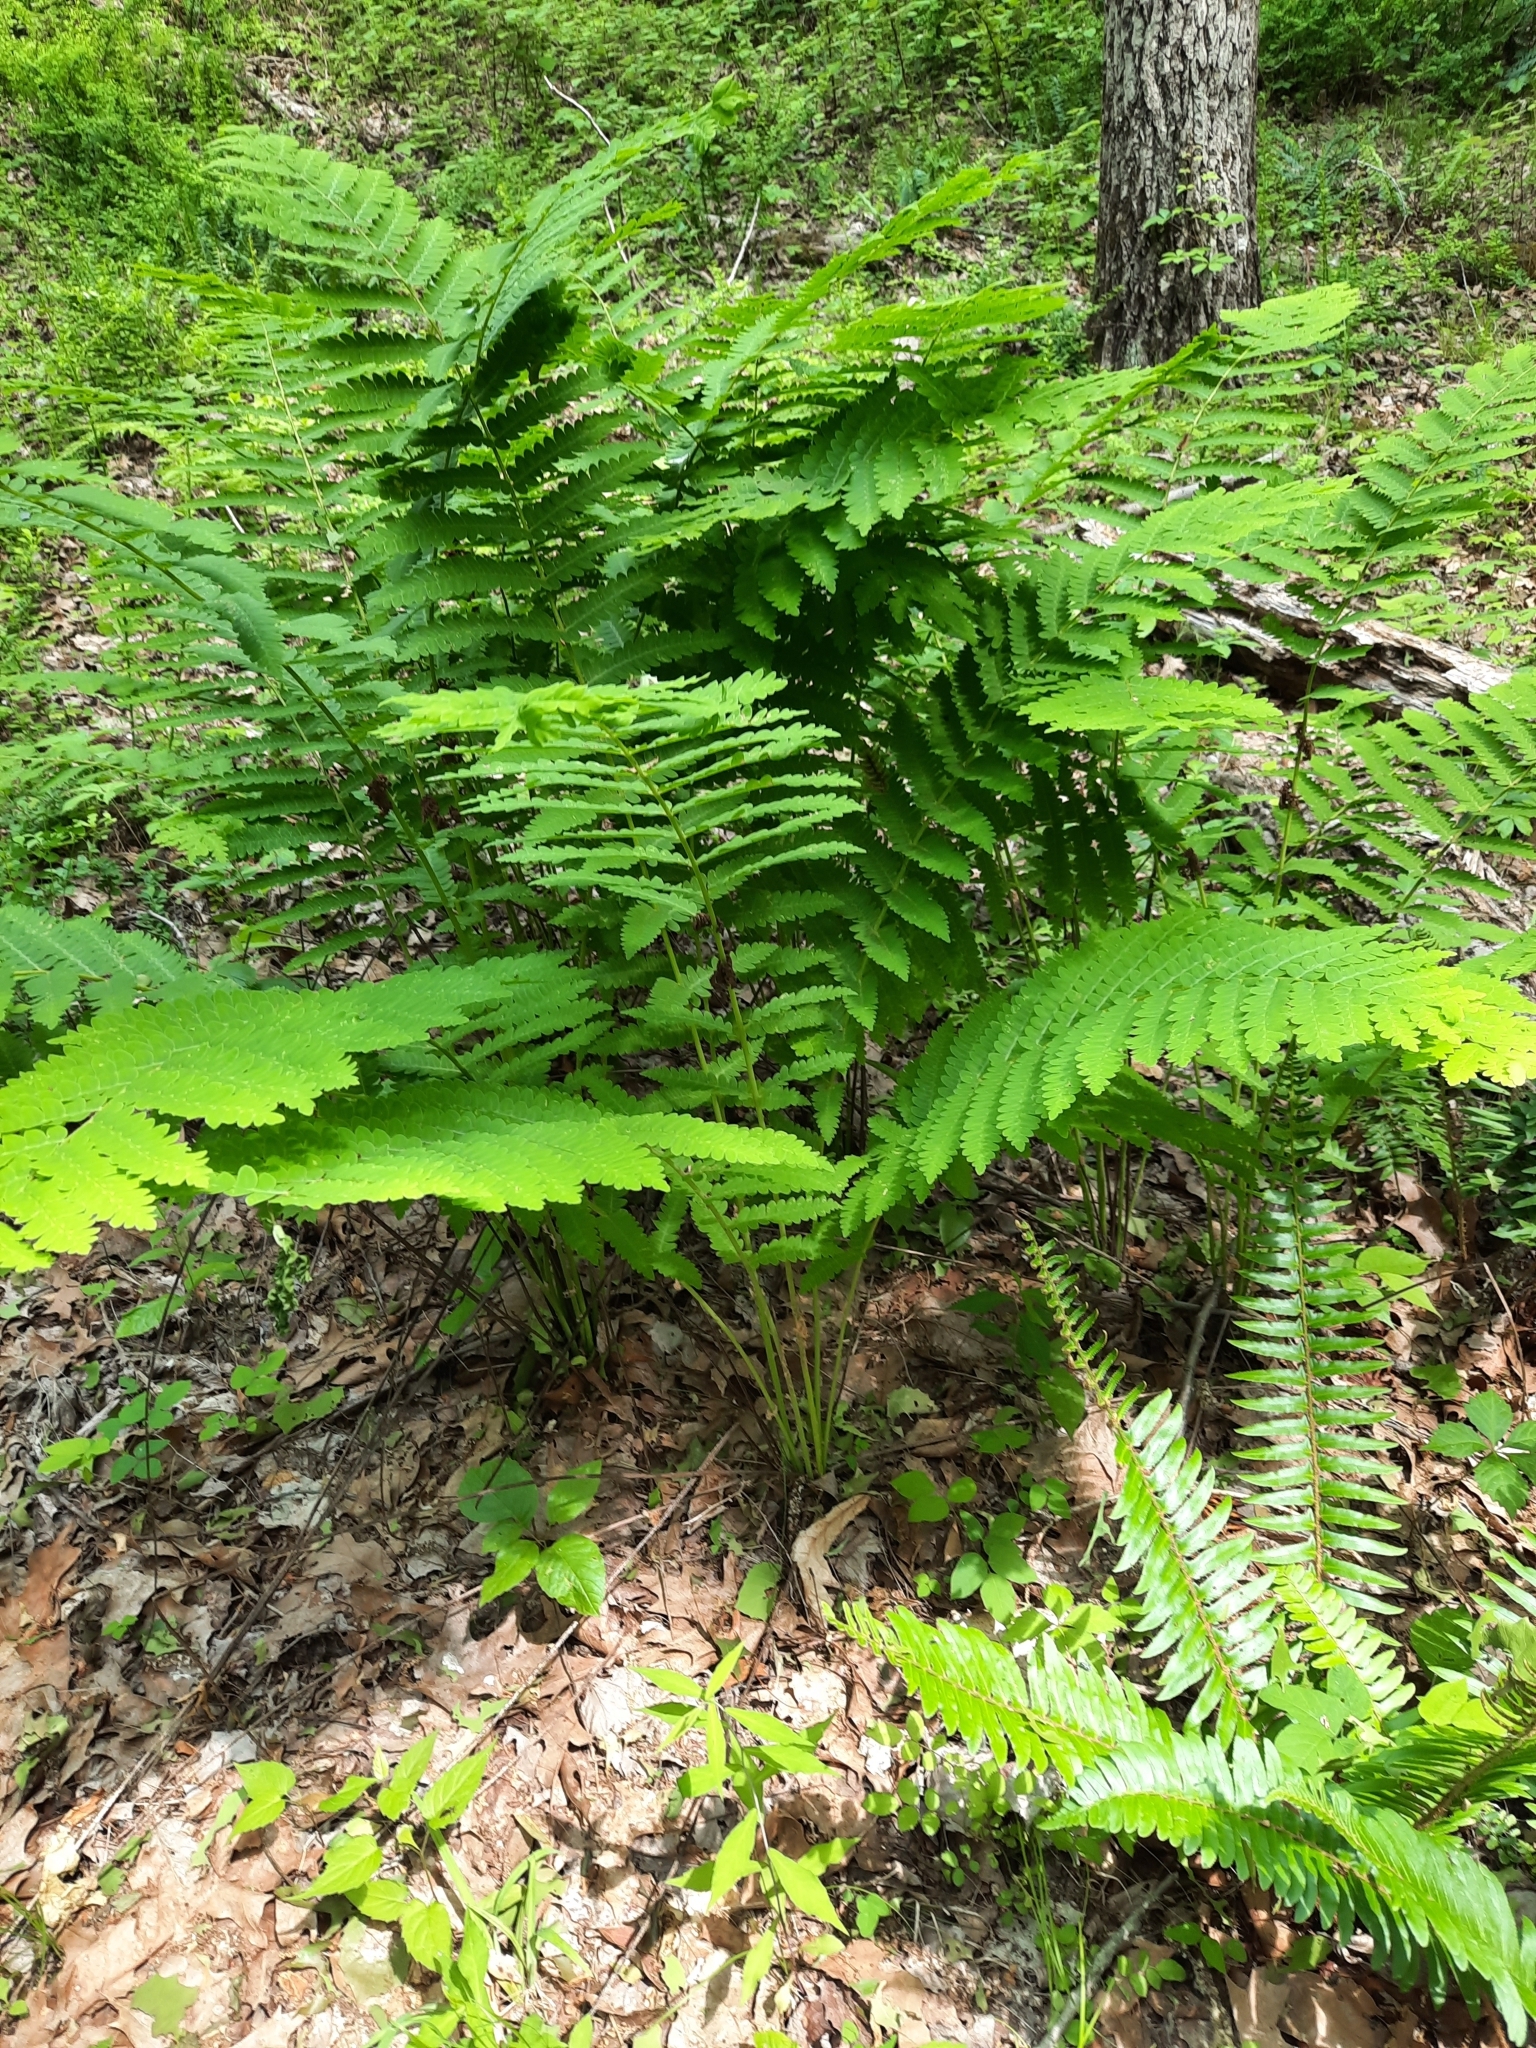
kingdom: Plantae
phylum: Tracheophyta
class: Polypodiopsida
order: Osmundales
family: Osmundaceae
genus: Claytosmunda
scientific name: Claytosmunda claytoniana
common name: Clayton's fern
